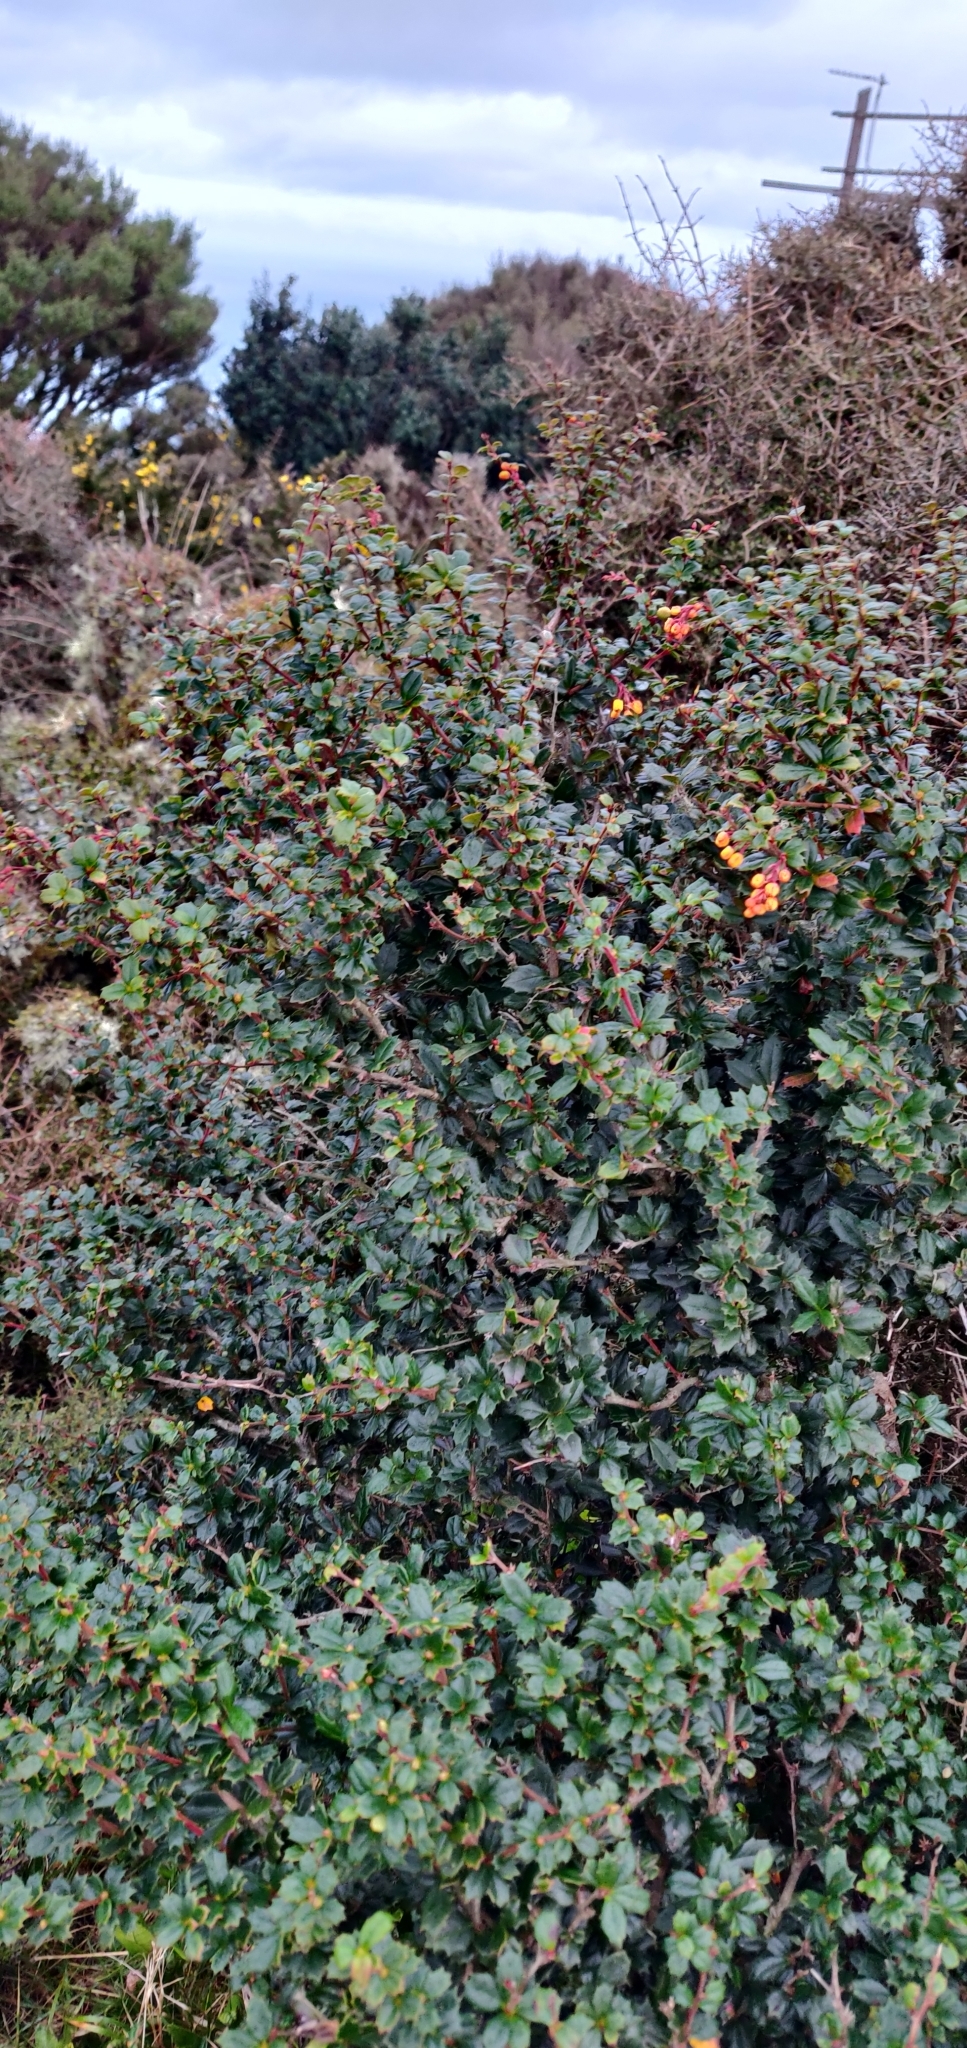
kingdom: Plantae
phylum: Tracheophyta
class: Magnoliopsida
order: Ranunculales
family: Berberidaceae
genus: Berberis
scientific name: Berberis darwinii
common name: Darwin's barberry
